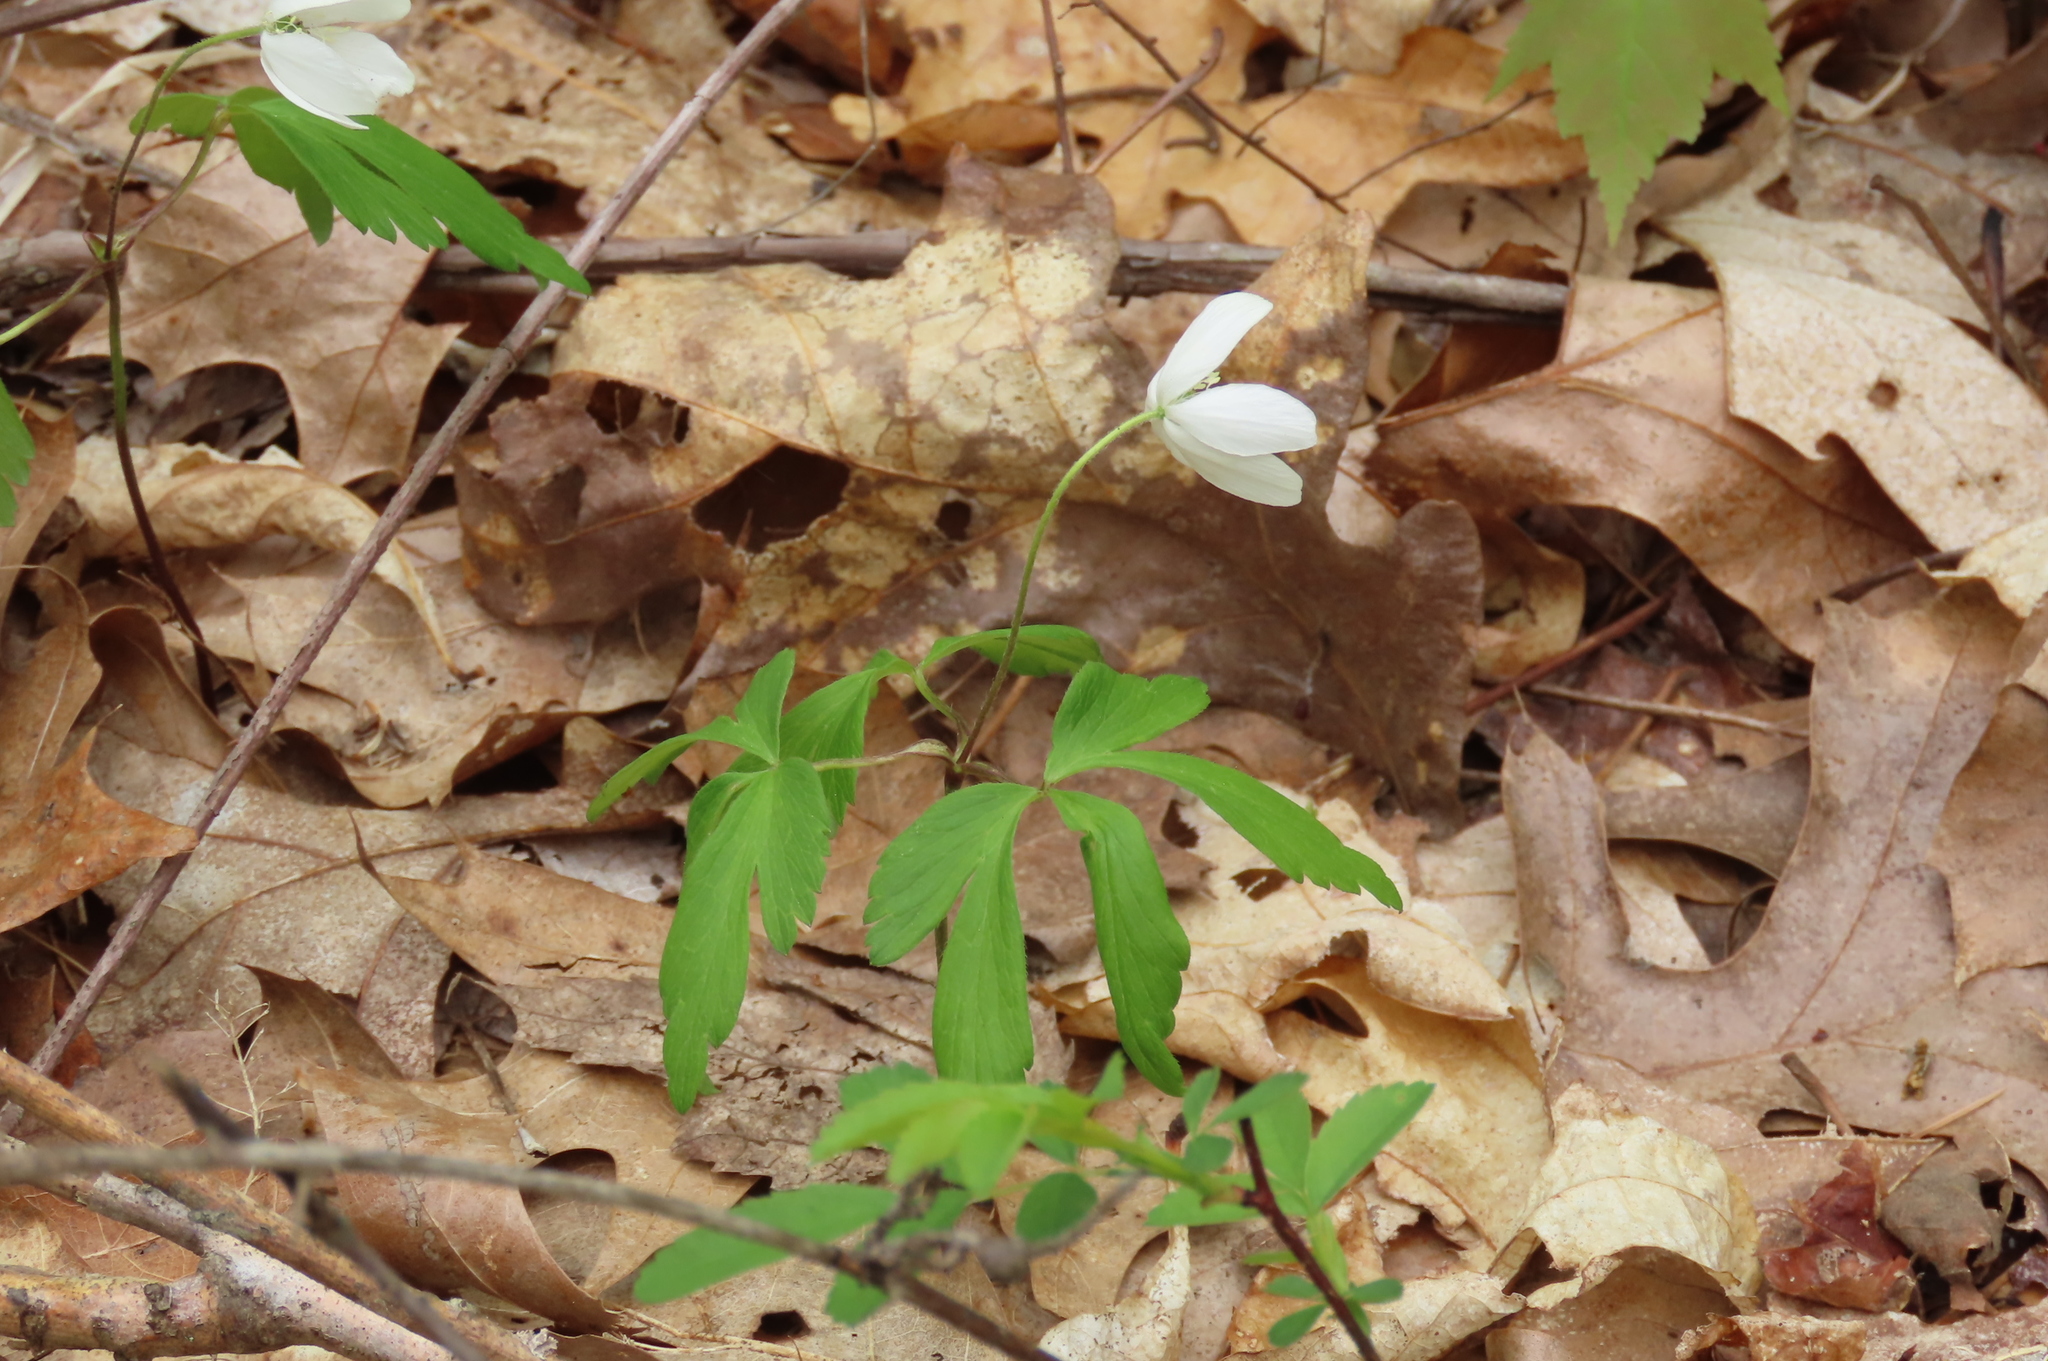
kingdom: Plantae
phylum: Tracheophyta
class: Magnoliopsida
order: Ranunculales
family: Ranunculaceae
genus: Anemone
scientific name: Anemone quinquefolia
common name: Wood anemone
